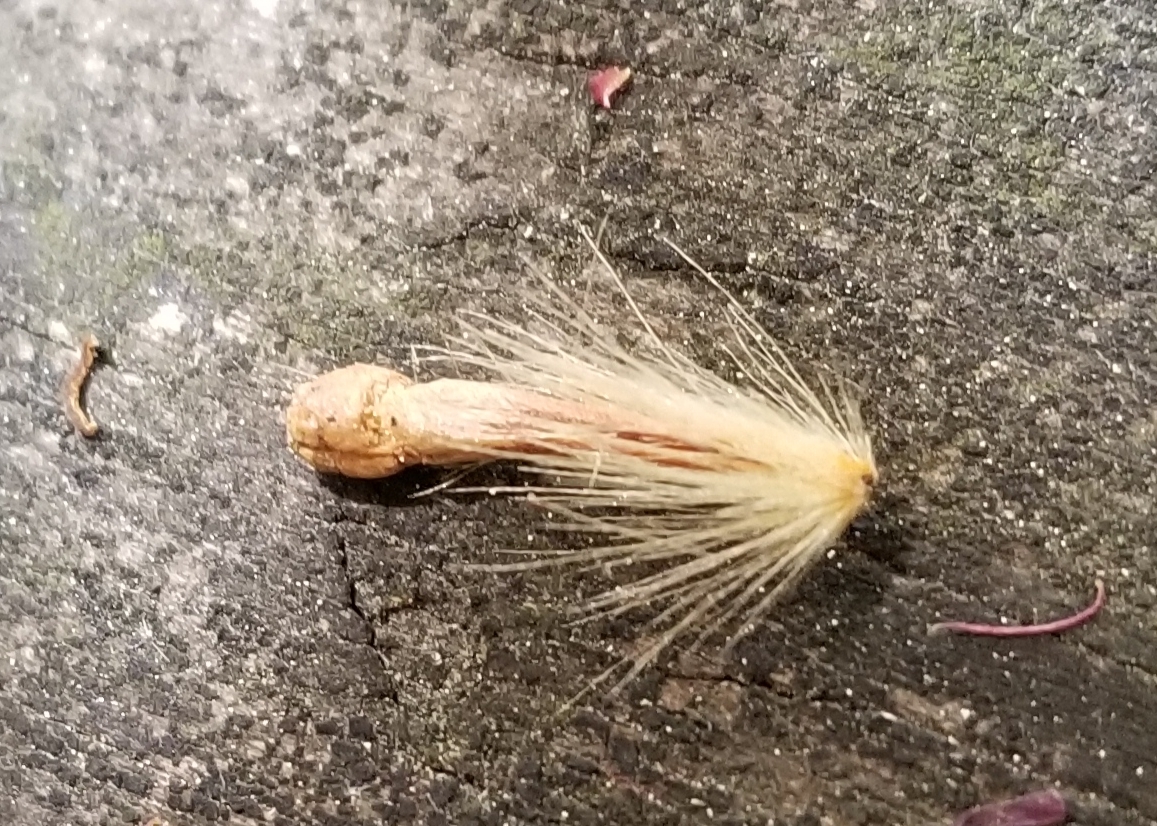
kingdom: Plantae
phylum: Tracheophyta
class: Magnoliopsida
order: Proteales
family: Platanaceae
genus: Platanus
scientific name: Platanus occidentalis
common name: American sycamore
